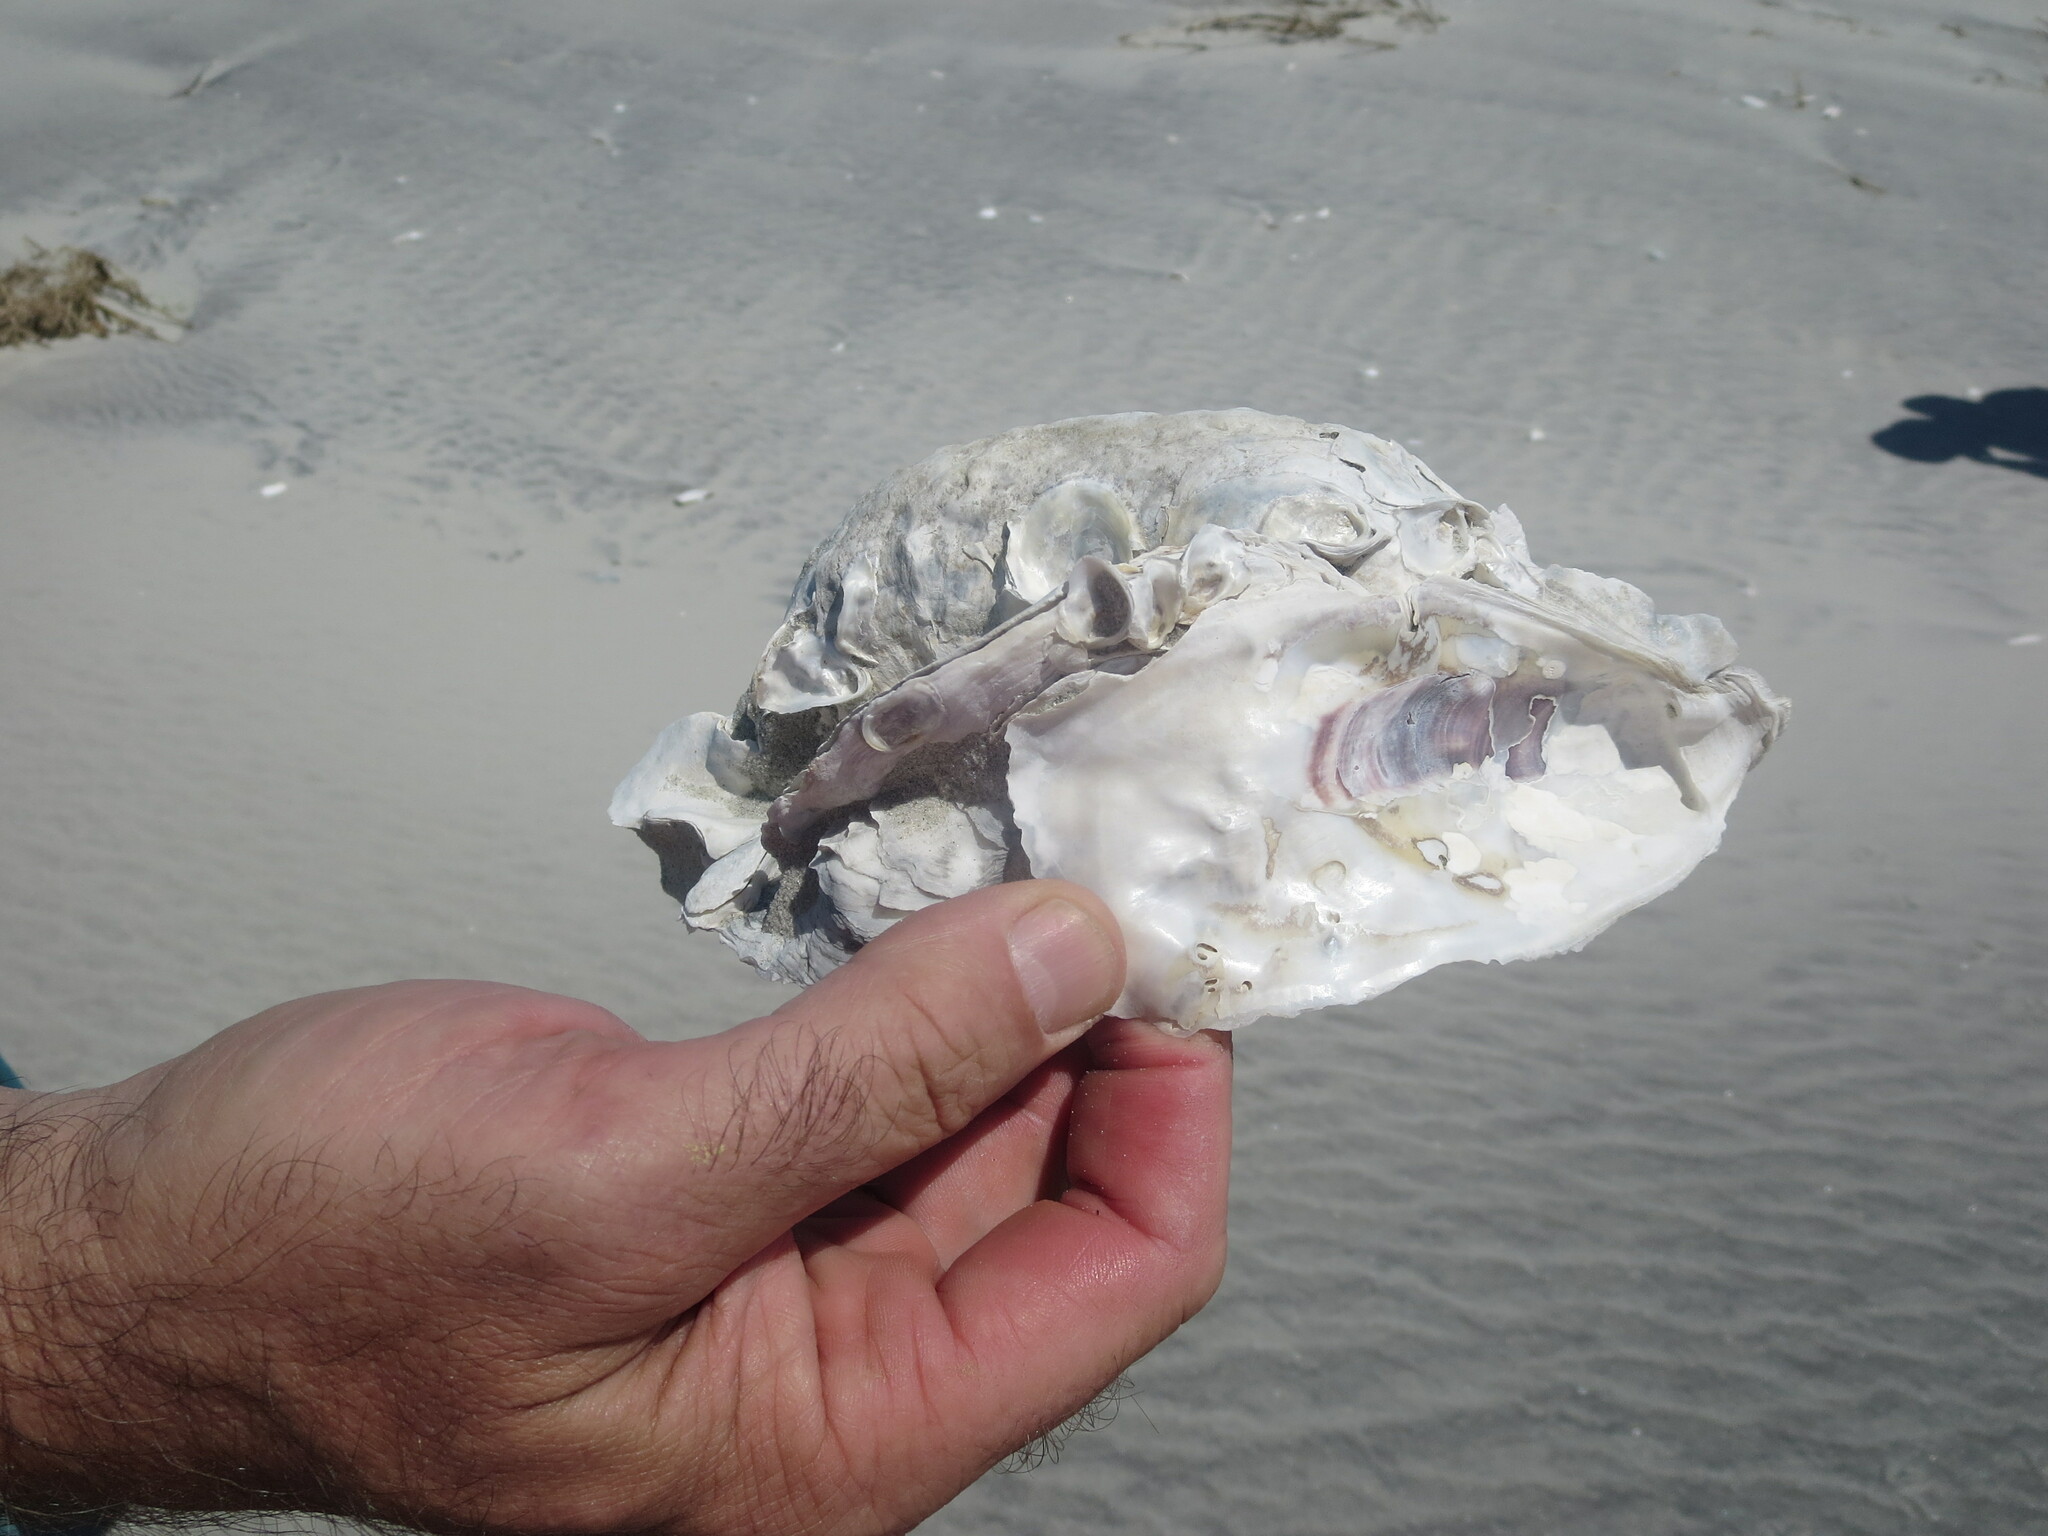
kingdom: Animalia
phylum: Mollusca
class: Bivalvia
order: Ostreida
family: Ostreidae
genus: Crassostrea
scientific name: Crassostrea virginica
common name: American oyster
